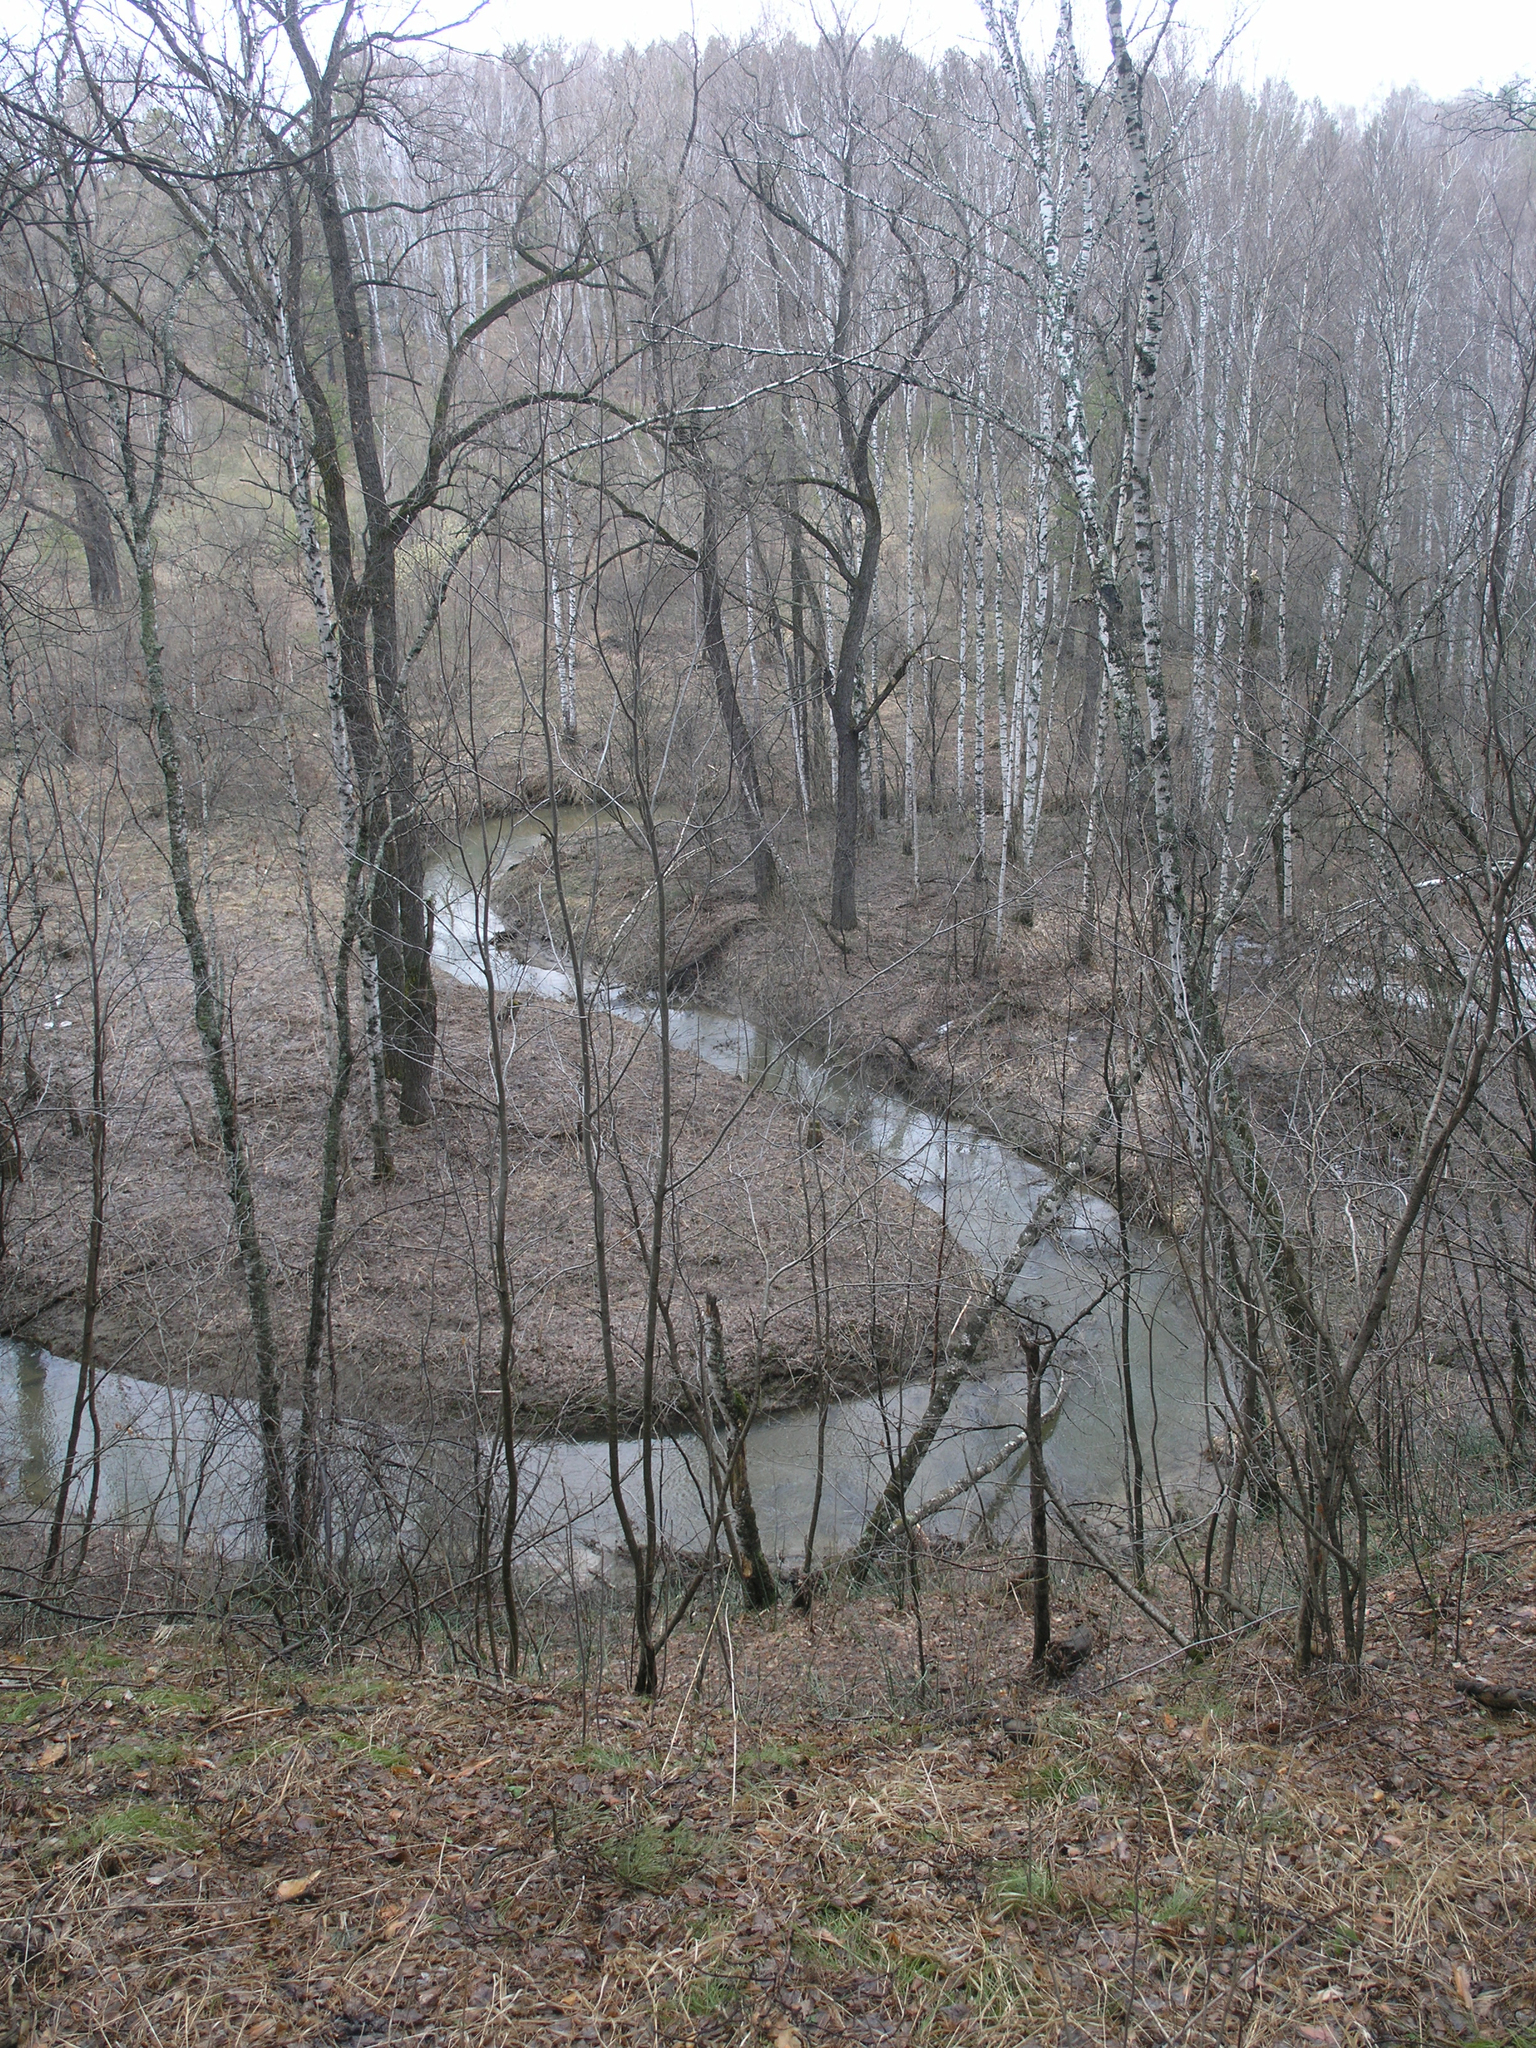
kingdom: Plantae
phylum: Tracheophyta
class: Magnoliopsida
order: Malpighiales
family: Salicaceae
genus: Salix
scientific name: Salix alba
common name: White willow
